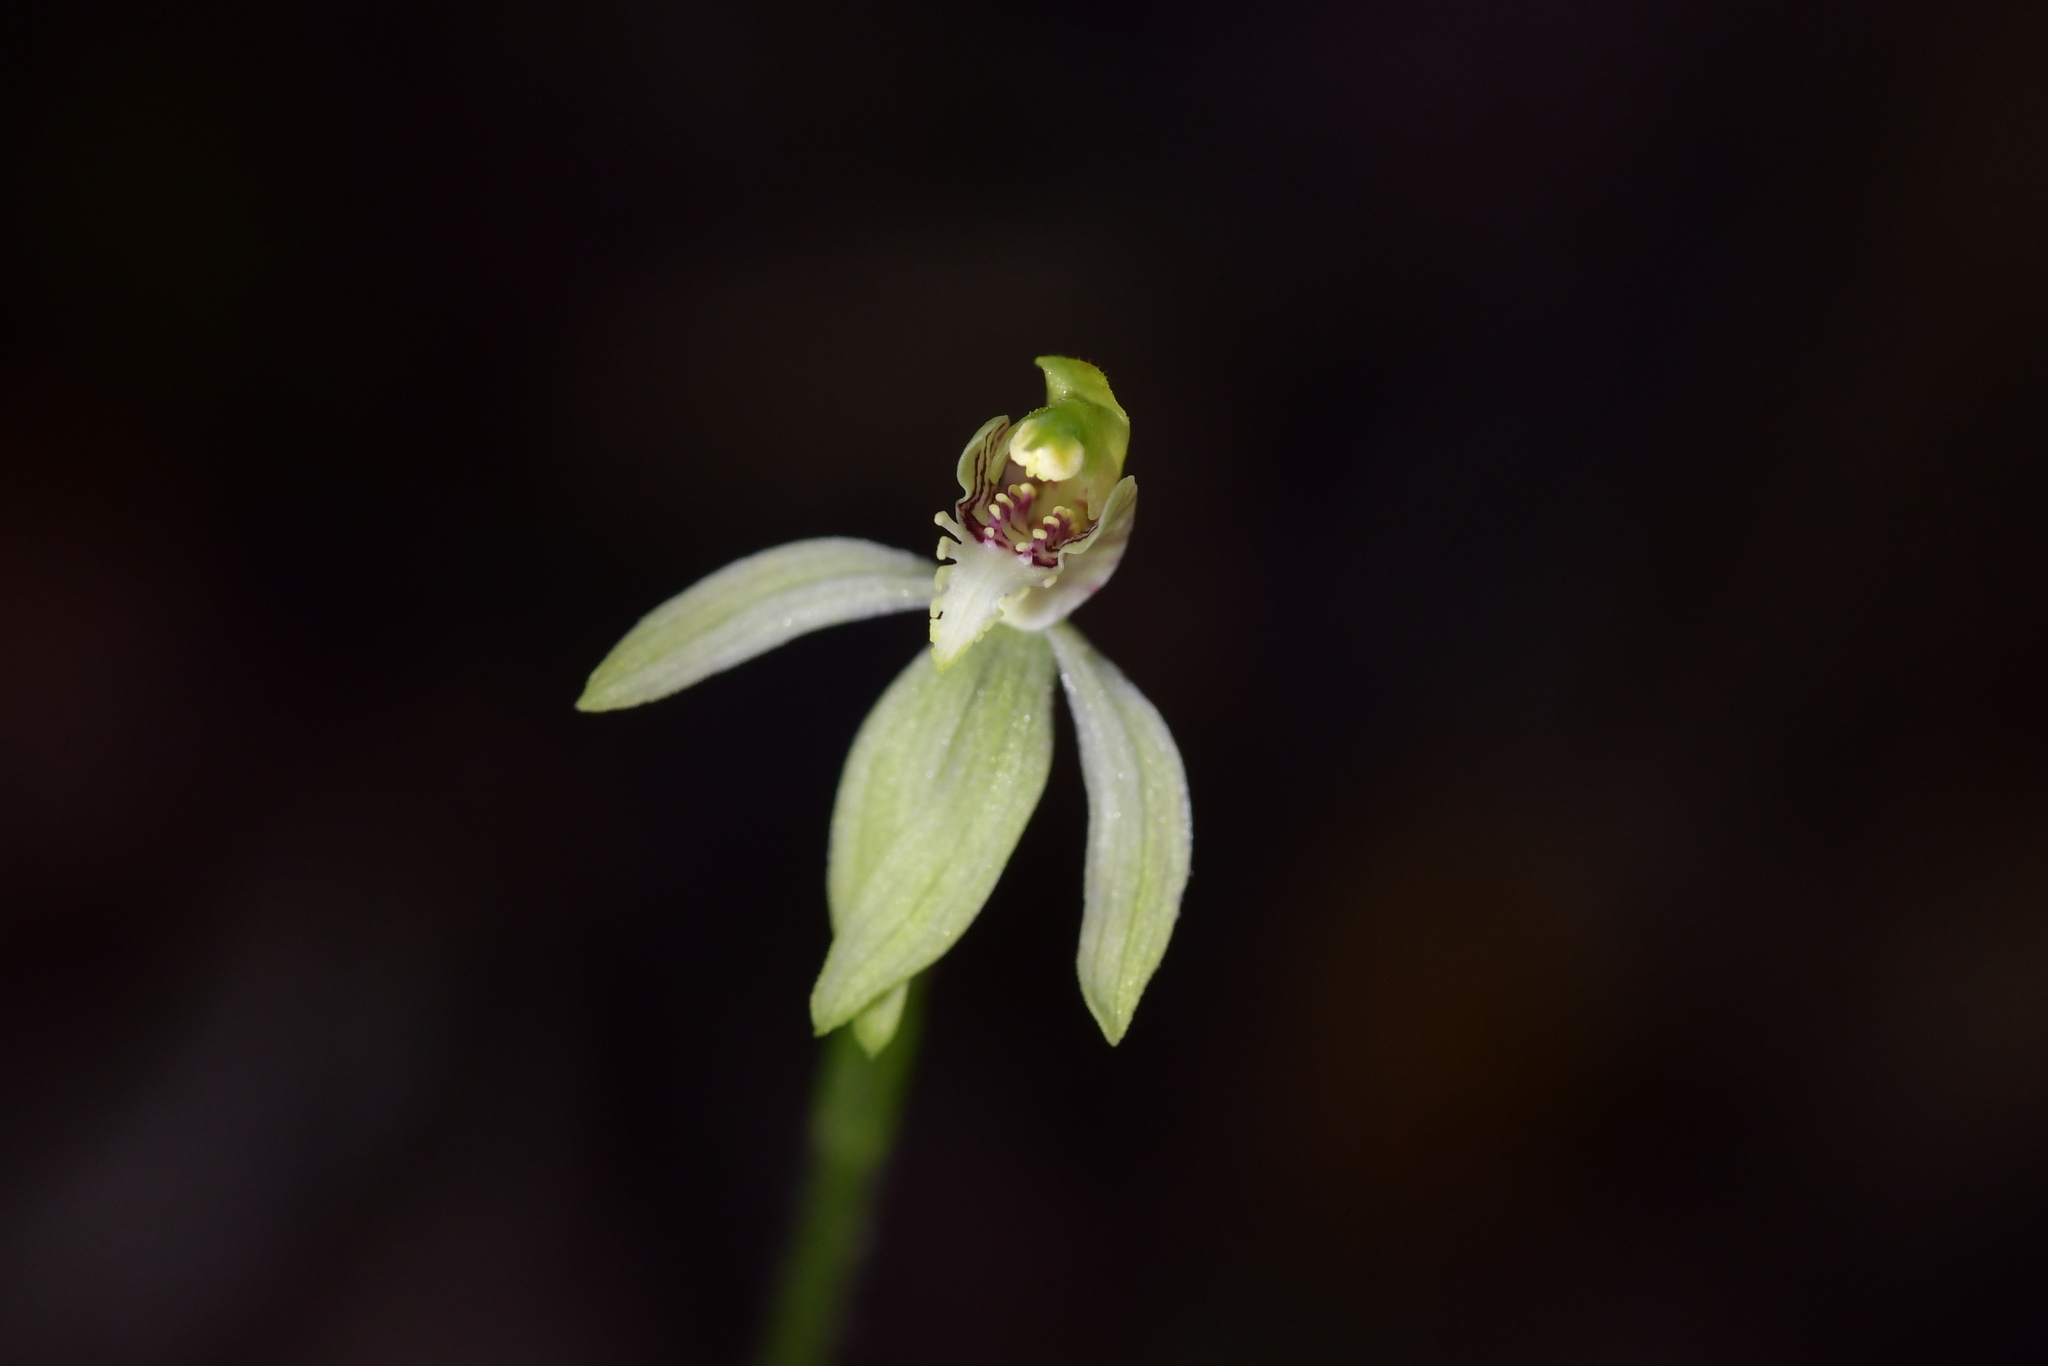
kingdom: Plantae
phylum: Tracheophyta
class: Liliopsida
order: Asparagales
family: Orchidaceae
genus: Caladenia
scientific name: Caladenia chlorostyla
